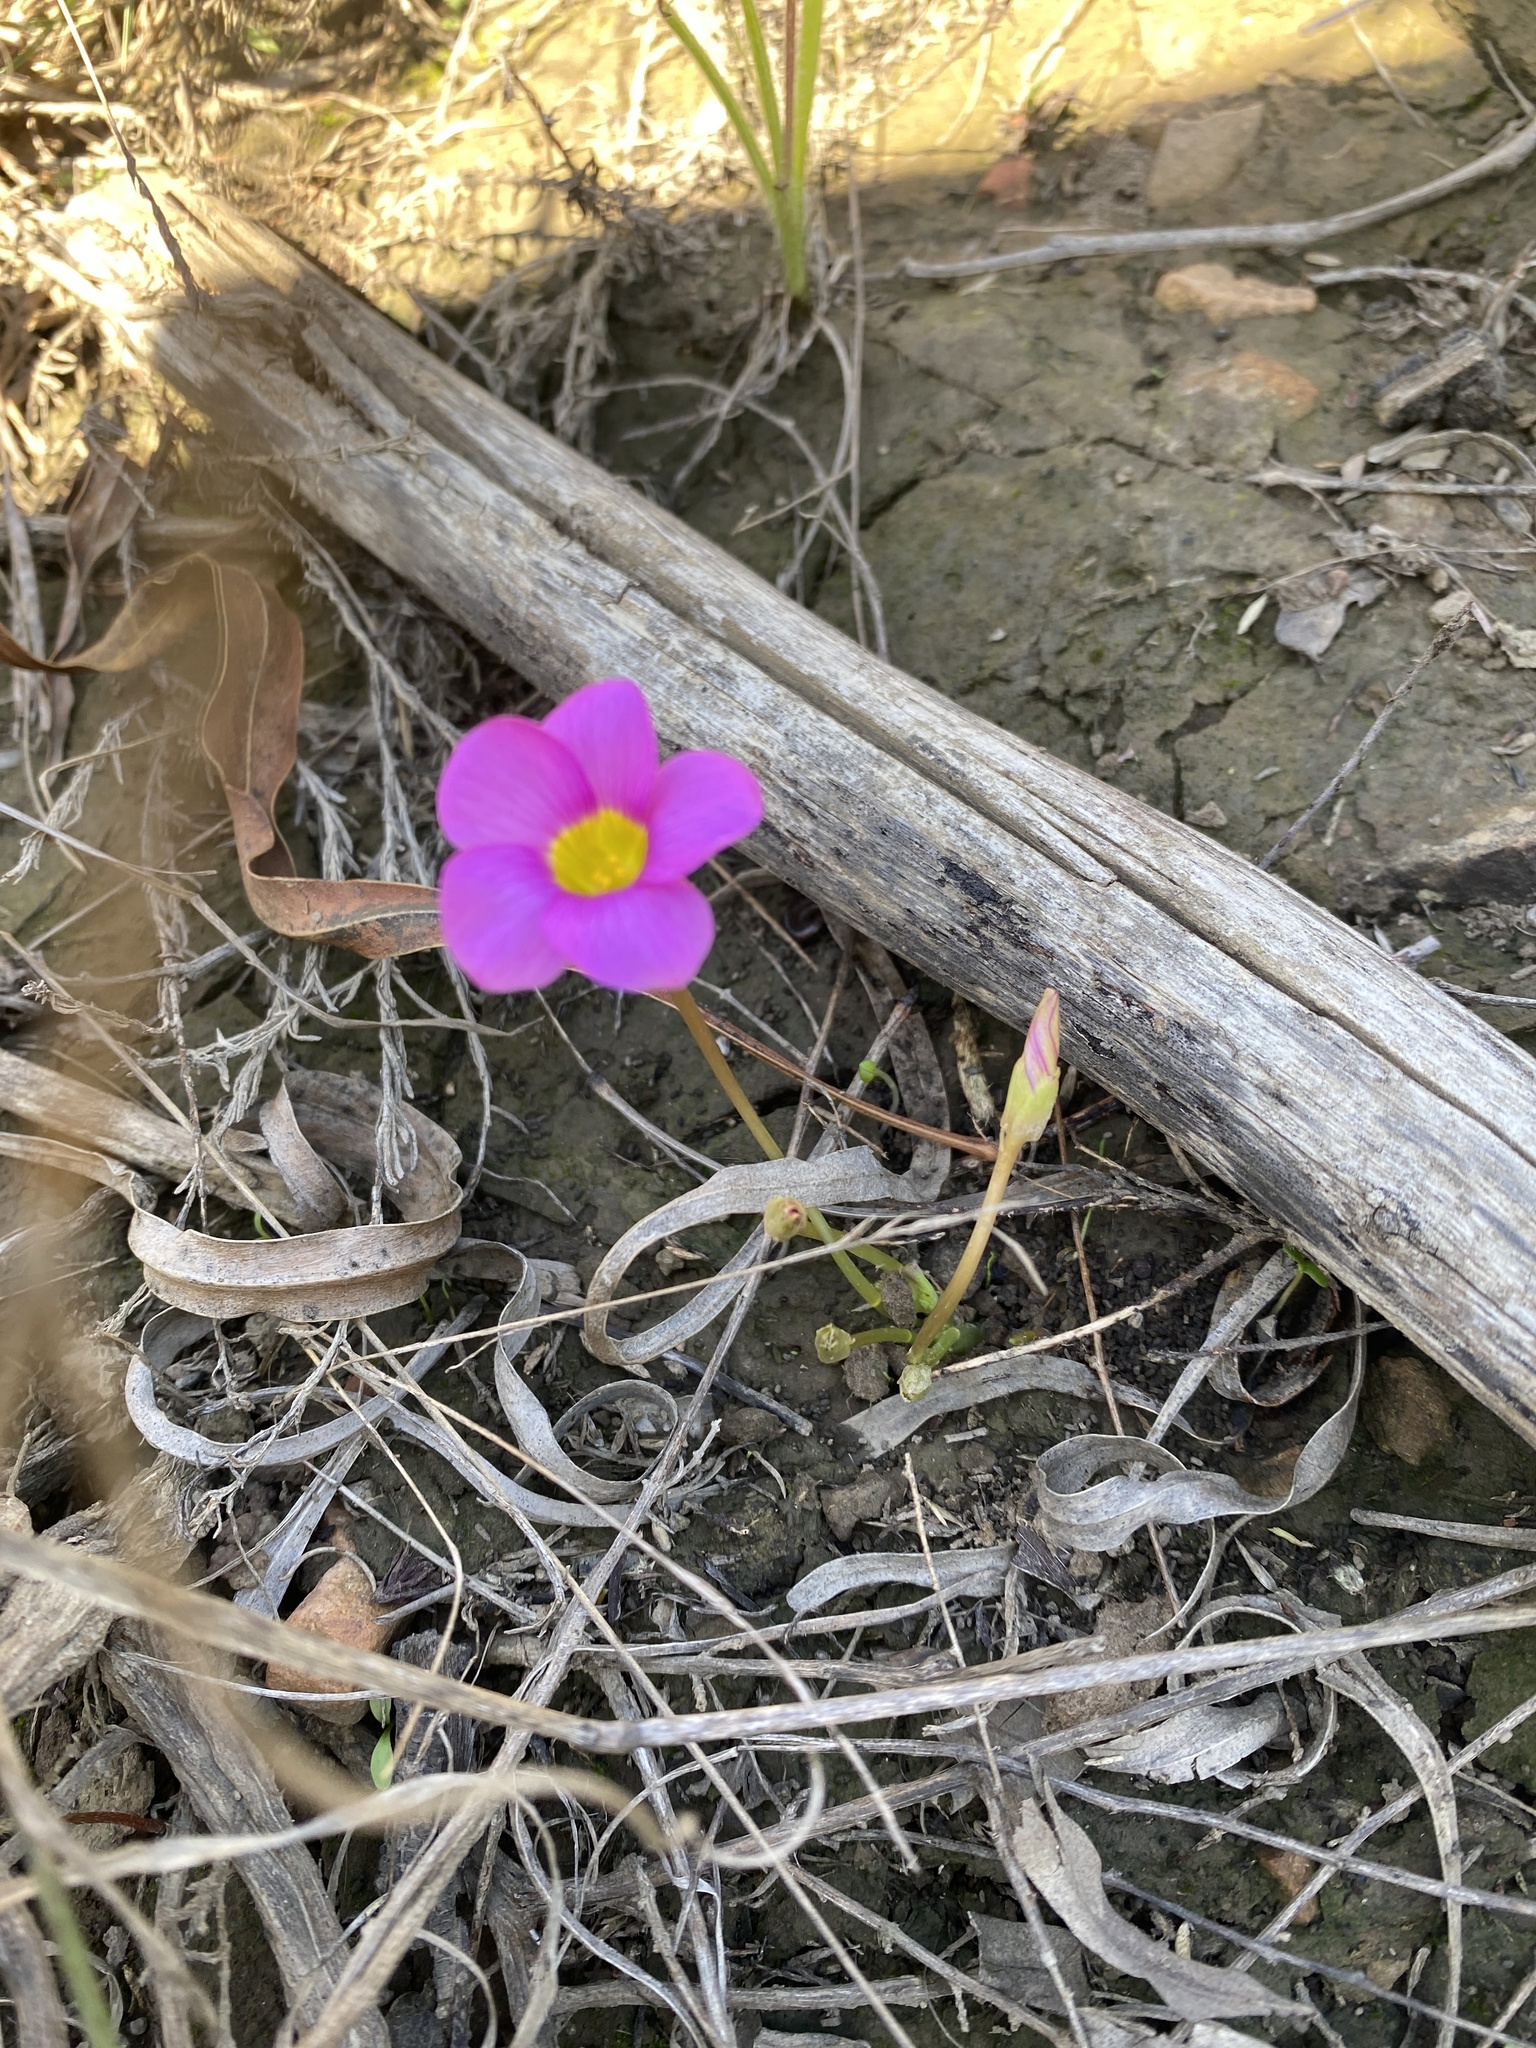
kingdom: Plantae
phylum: Tracheophyta
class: Magnoliopsida
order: Oxalidales
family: Oxalidaceae
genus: Oxalis
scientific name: Oxalis depressa
